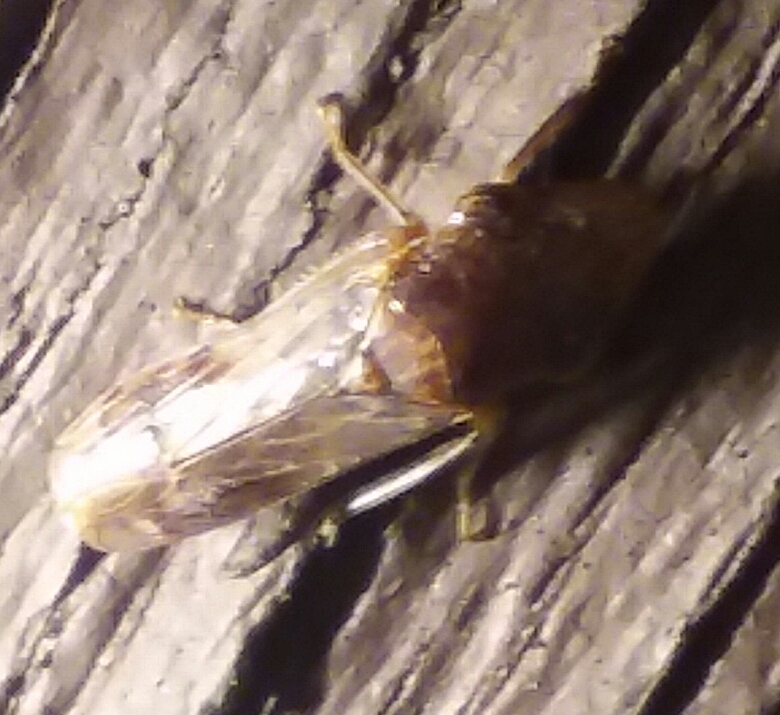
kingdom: Animalia
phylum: Arthropoda
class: Insecta
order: Hemiptera
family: Cicadellidae
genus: Homalodisca
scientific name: Homalodisca vitripennis
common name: Glassy-winged sharpshooter
